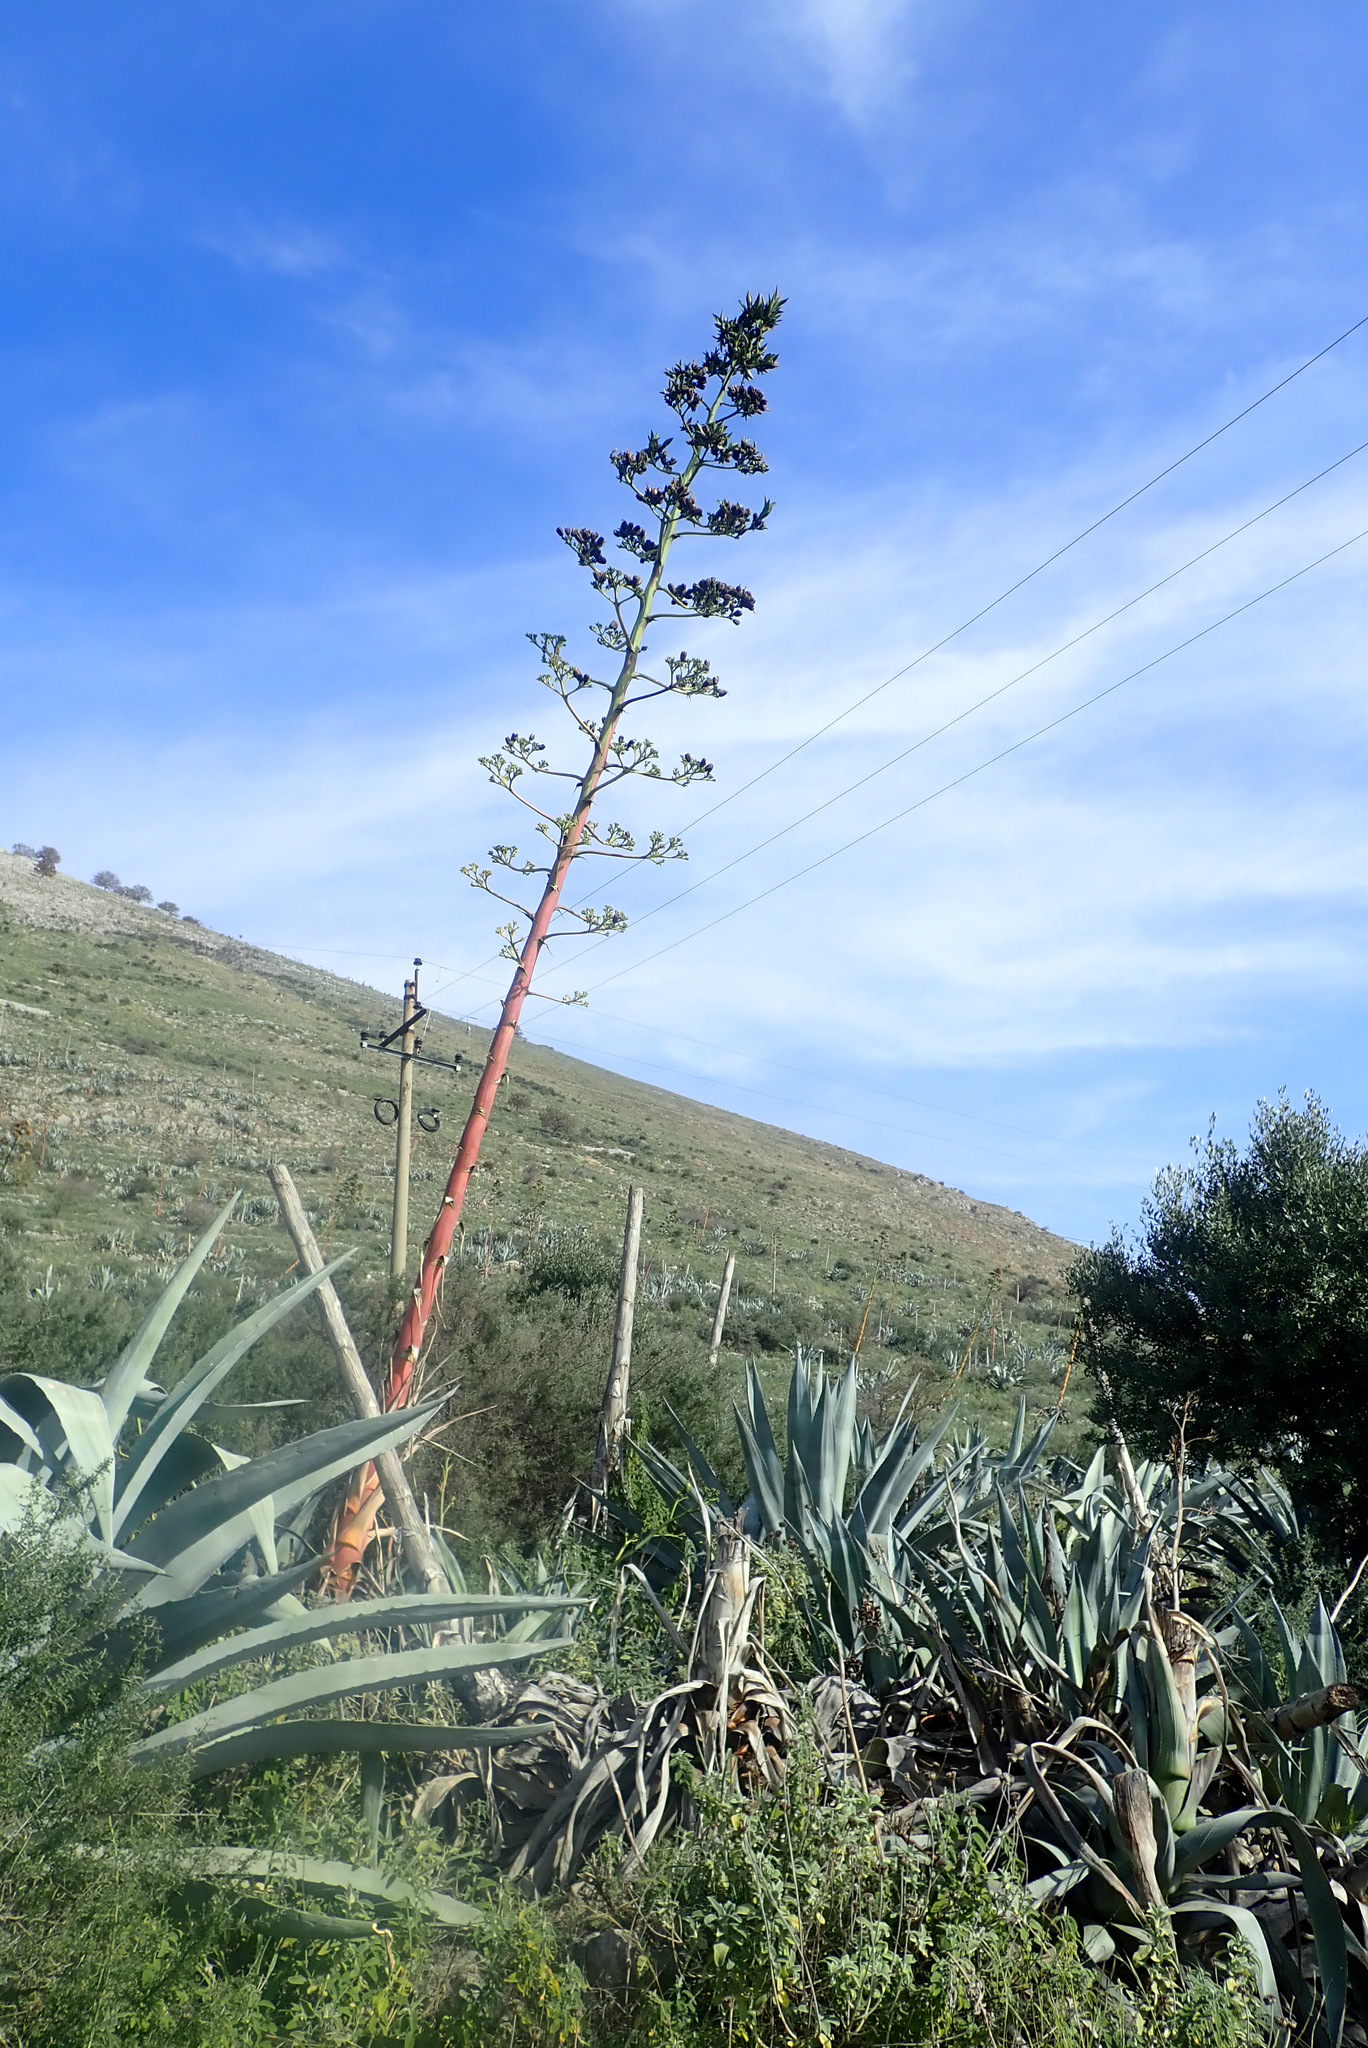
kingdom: Plantae
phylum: Tracheophyta
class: Liliopsida
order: Asparagales
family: Asparagaceae
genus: Agave
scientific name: Agave americana
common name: Centuryplant
